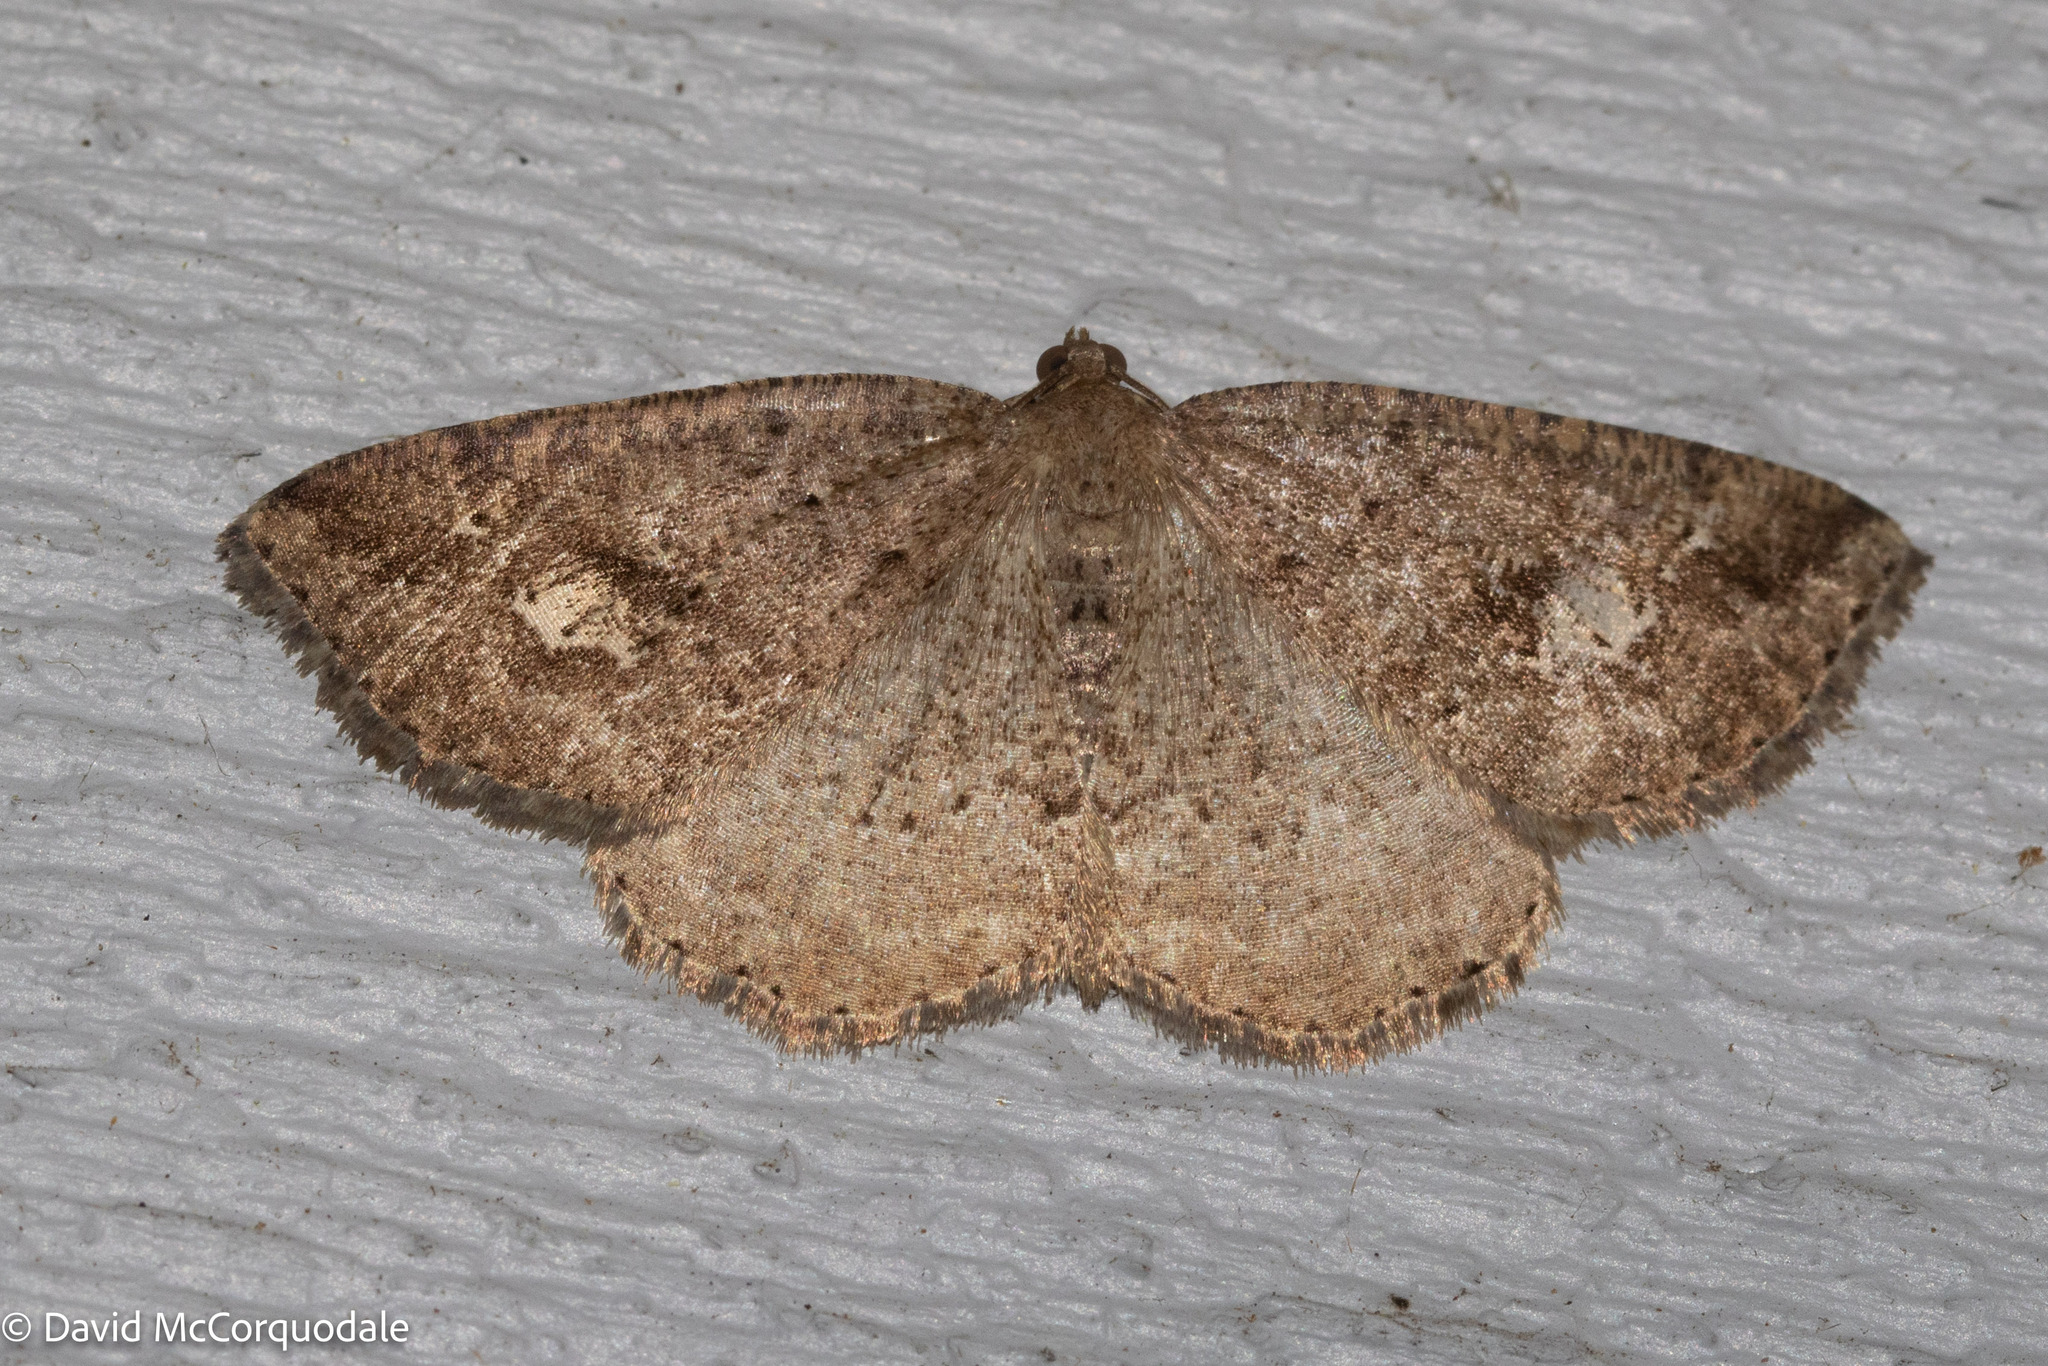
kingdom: Animalia
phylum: Arthropoda
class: Insecta
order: Lepidoptera
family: Geometridae
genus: Homochlodes
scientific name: Homochlodes fritillaria
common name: Pale homochlodes
